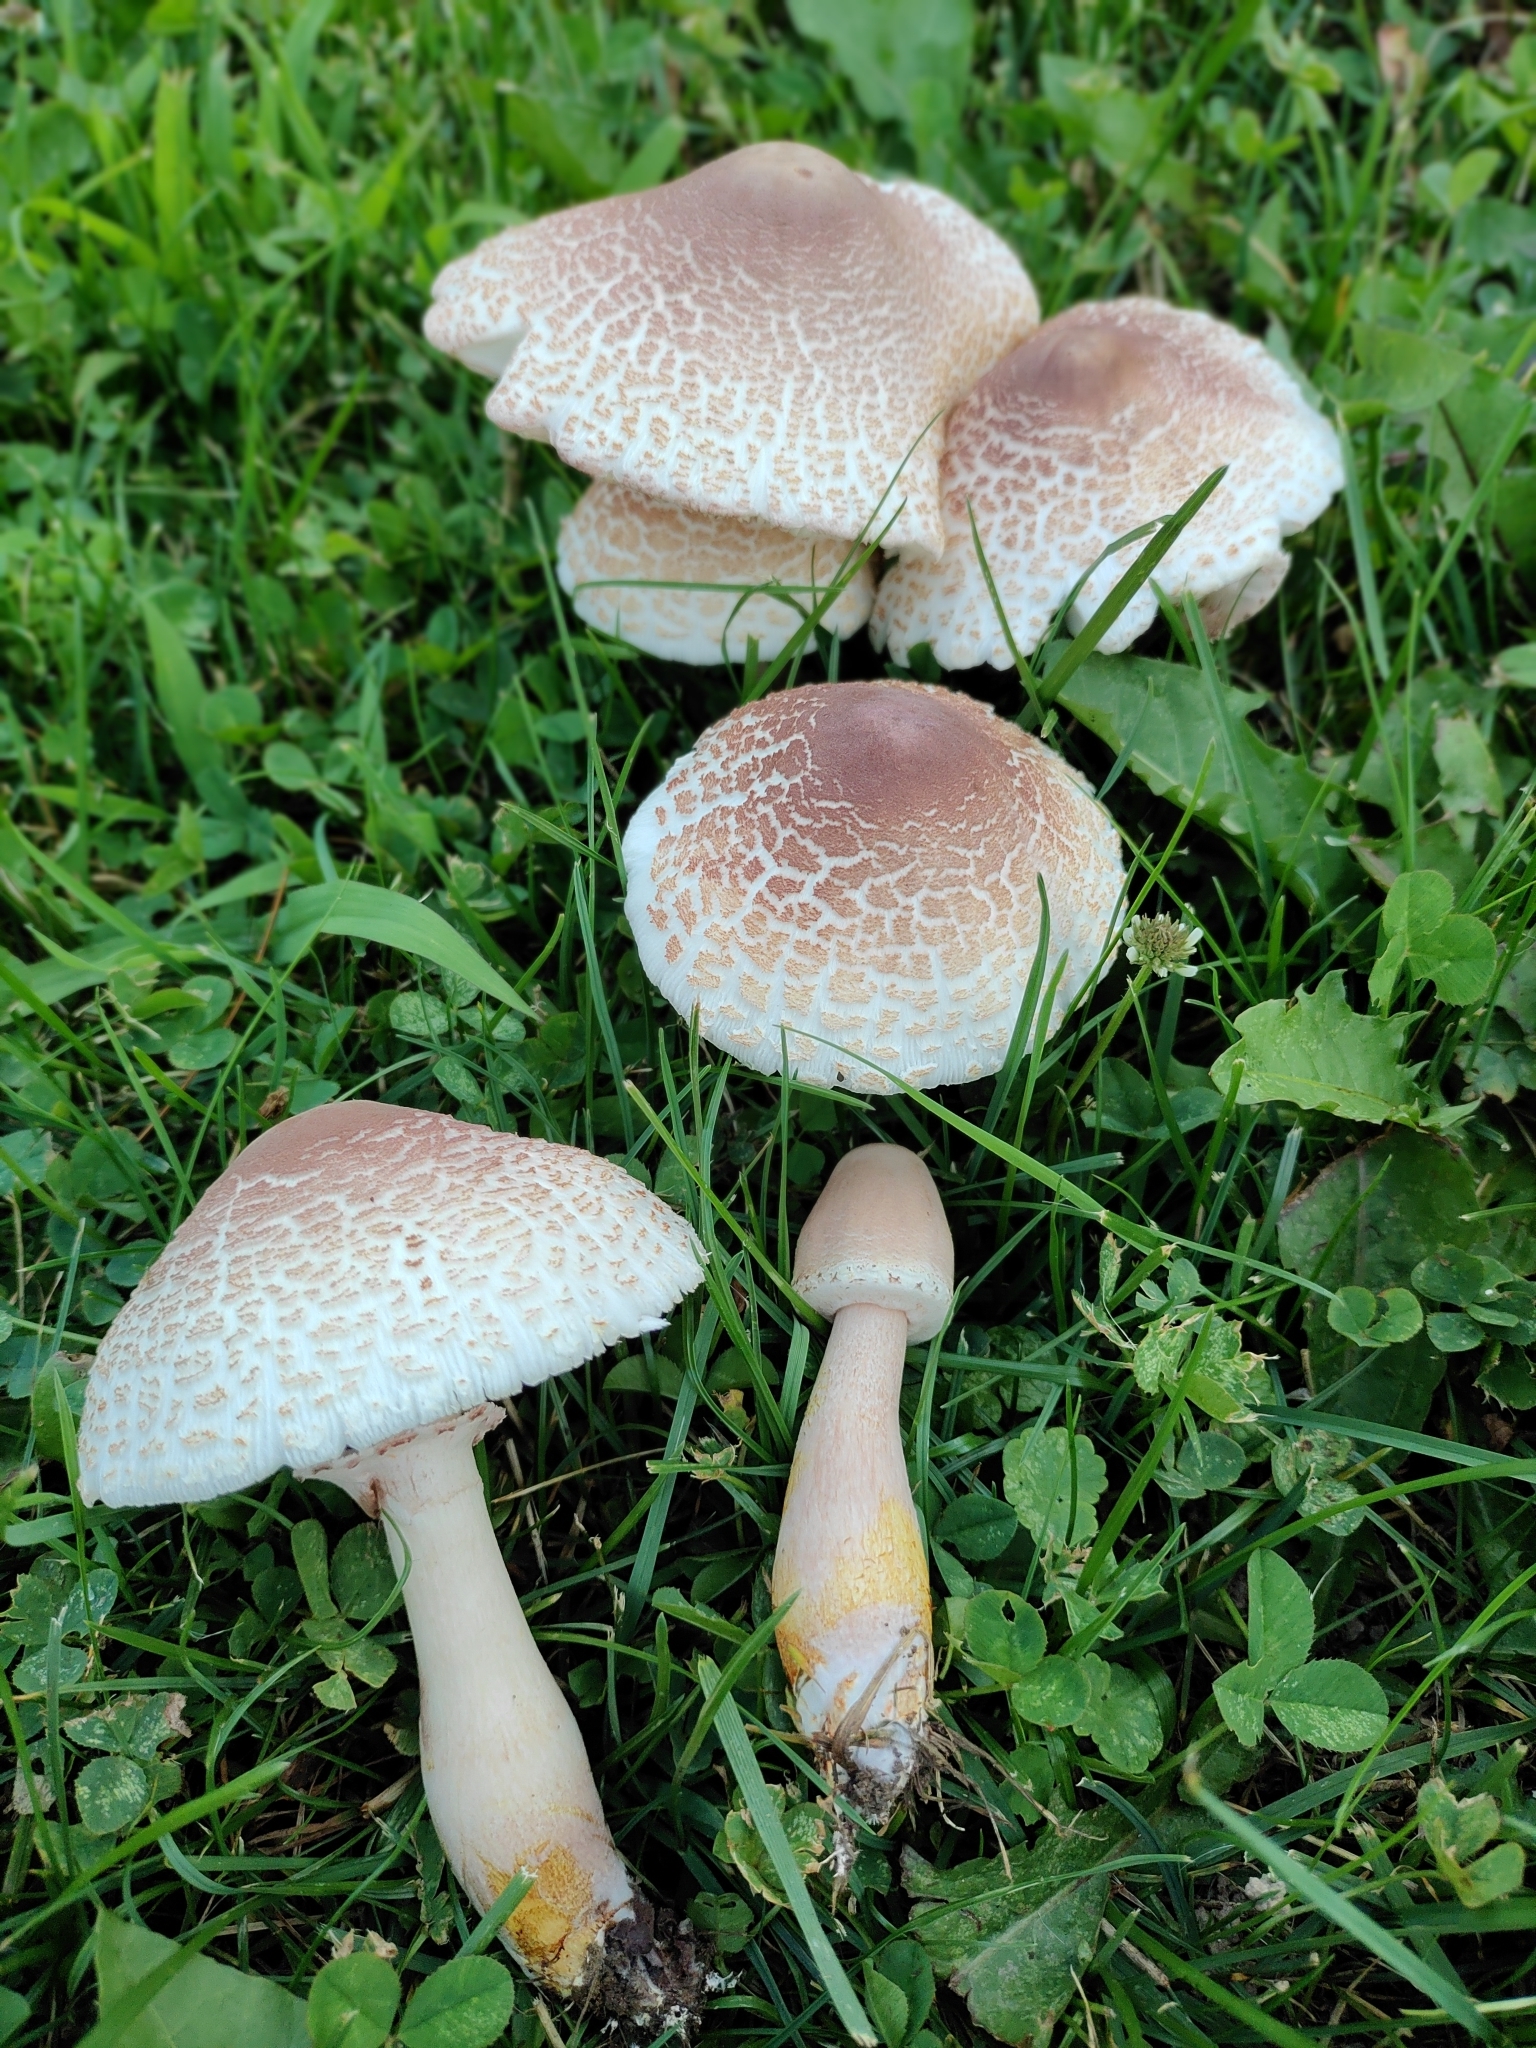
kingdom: Fungi
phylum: Basidiomycota
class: Agaricomycetes
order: Agaricales
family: Agaricaceae
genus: Leucoagaricus
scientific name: Leucoagaricus americanus
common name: Reddening lepiota
